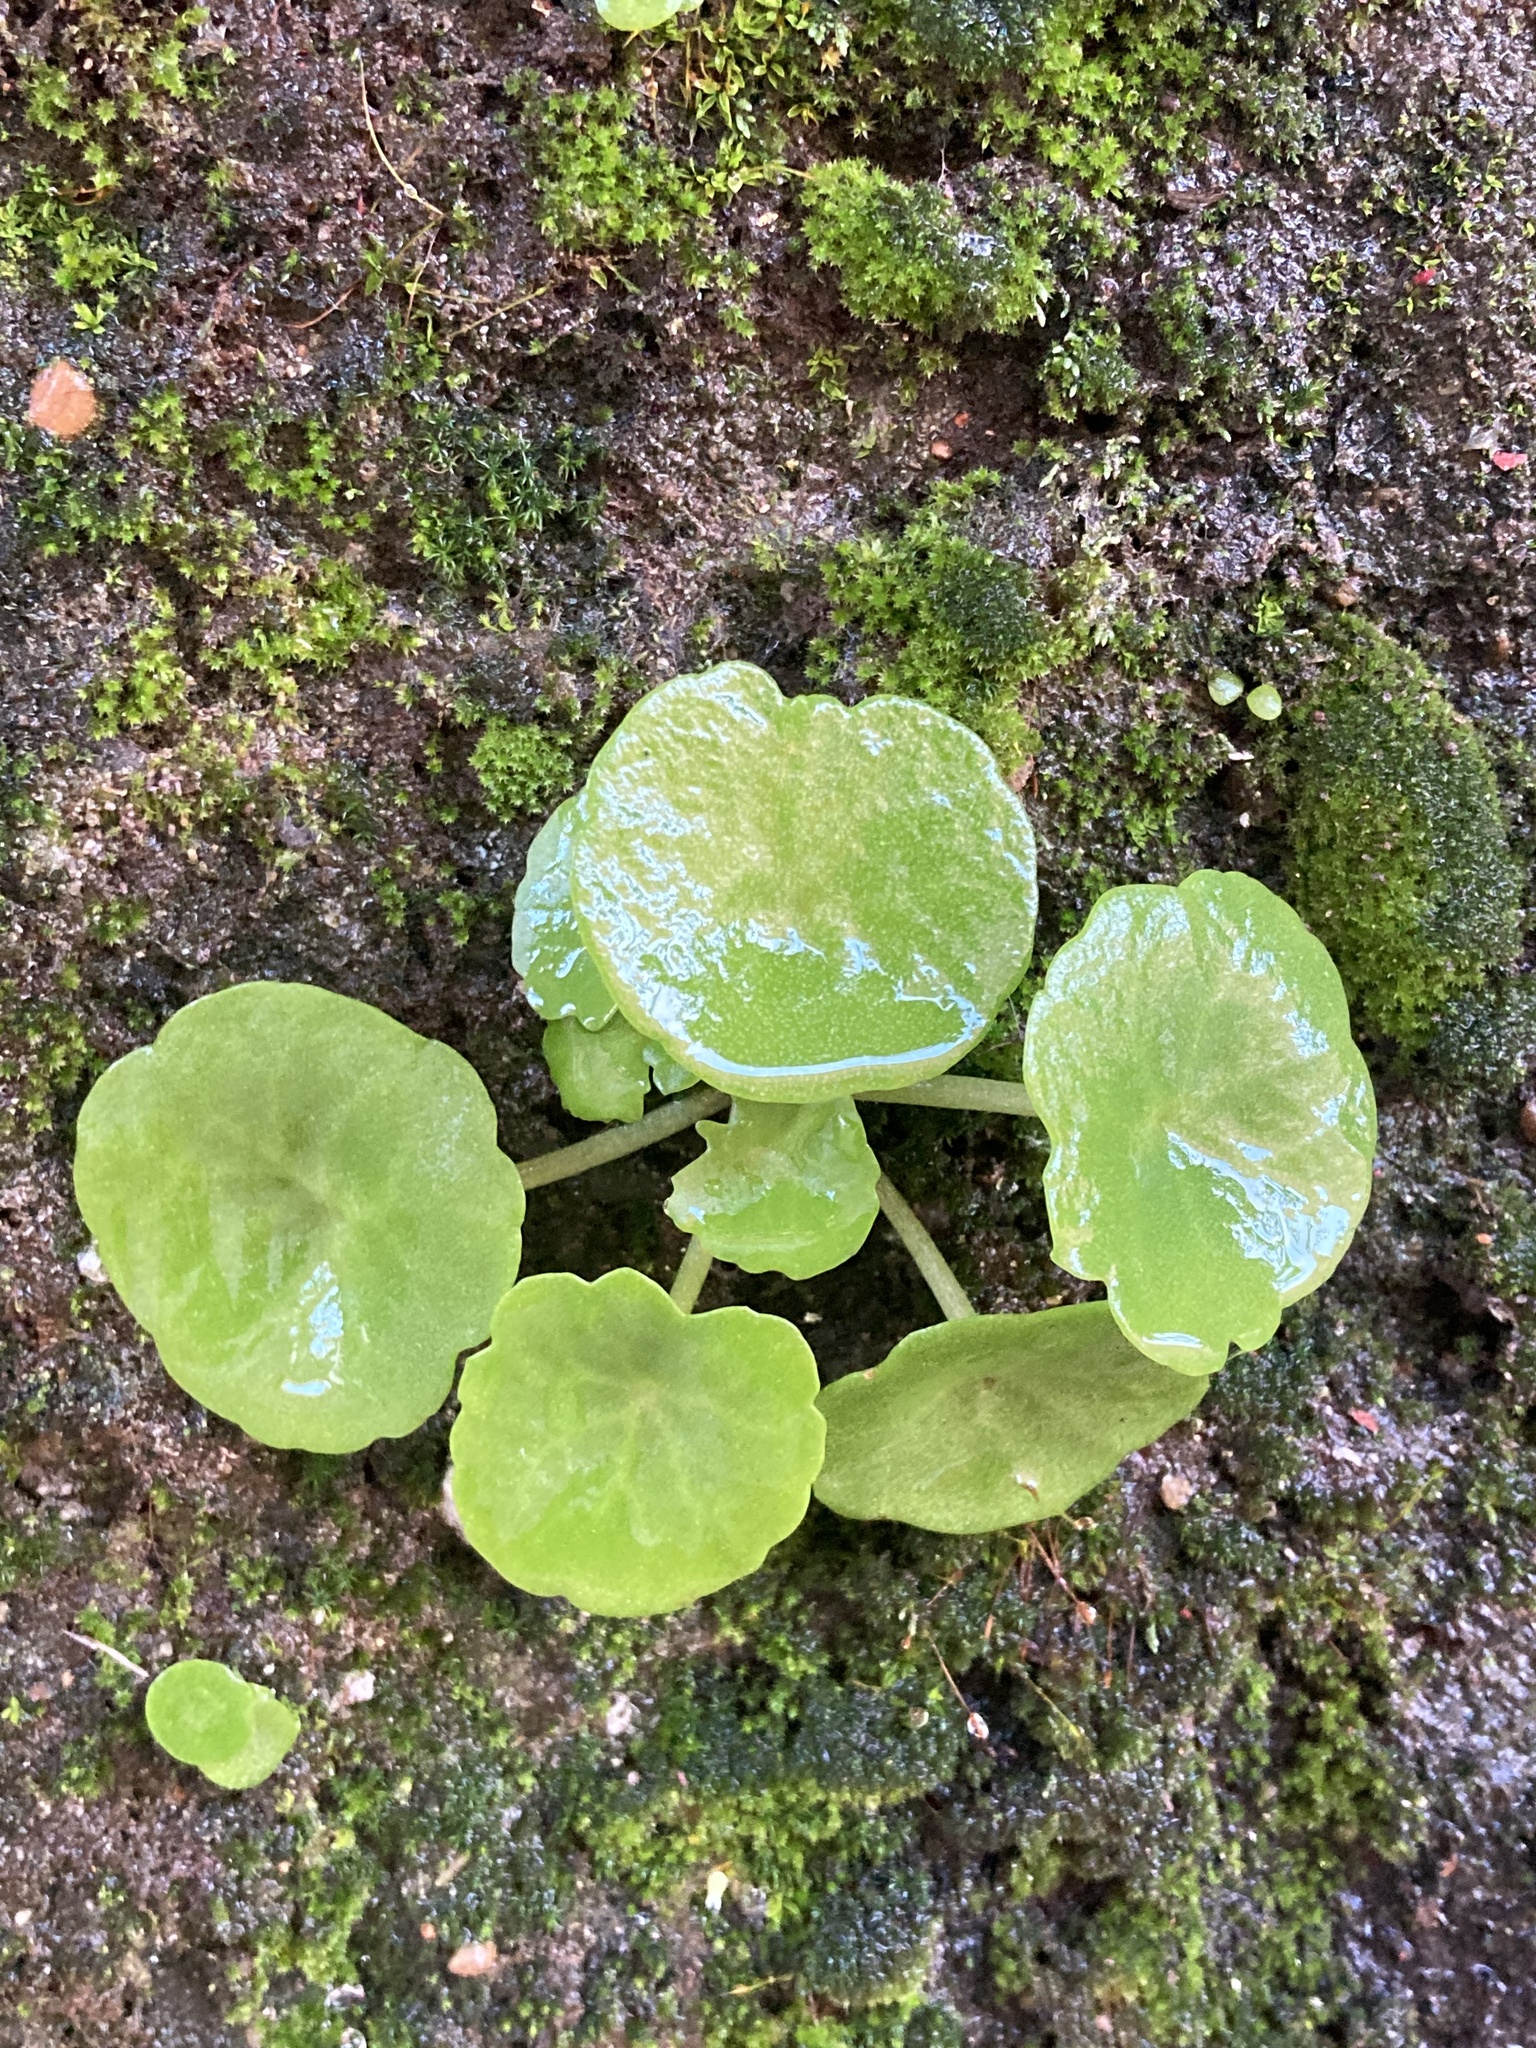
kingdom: Plantae
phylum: Tracheophyta
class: Magnoliopsida
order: Saxifragales
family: Crassulaceae
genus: Umbilicus
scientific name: Umbilicus rupestris
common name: Navelwort
